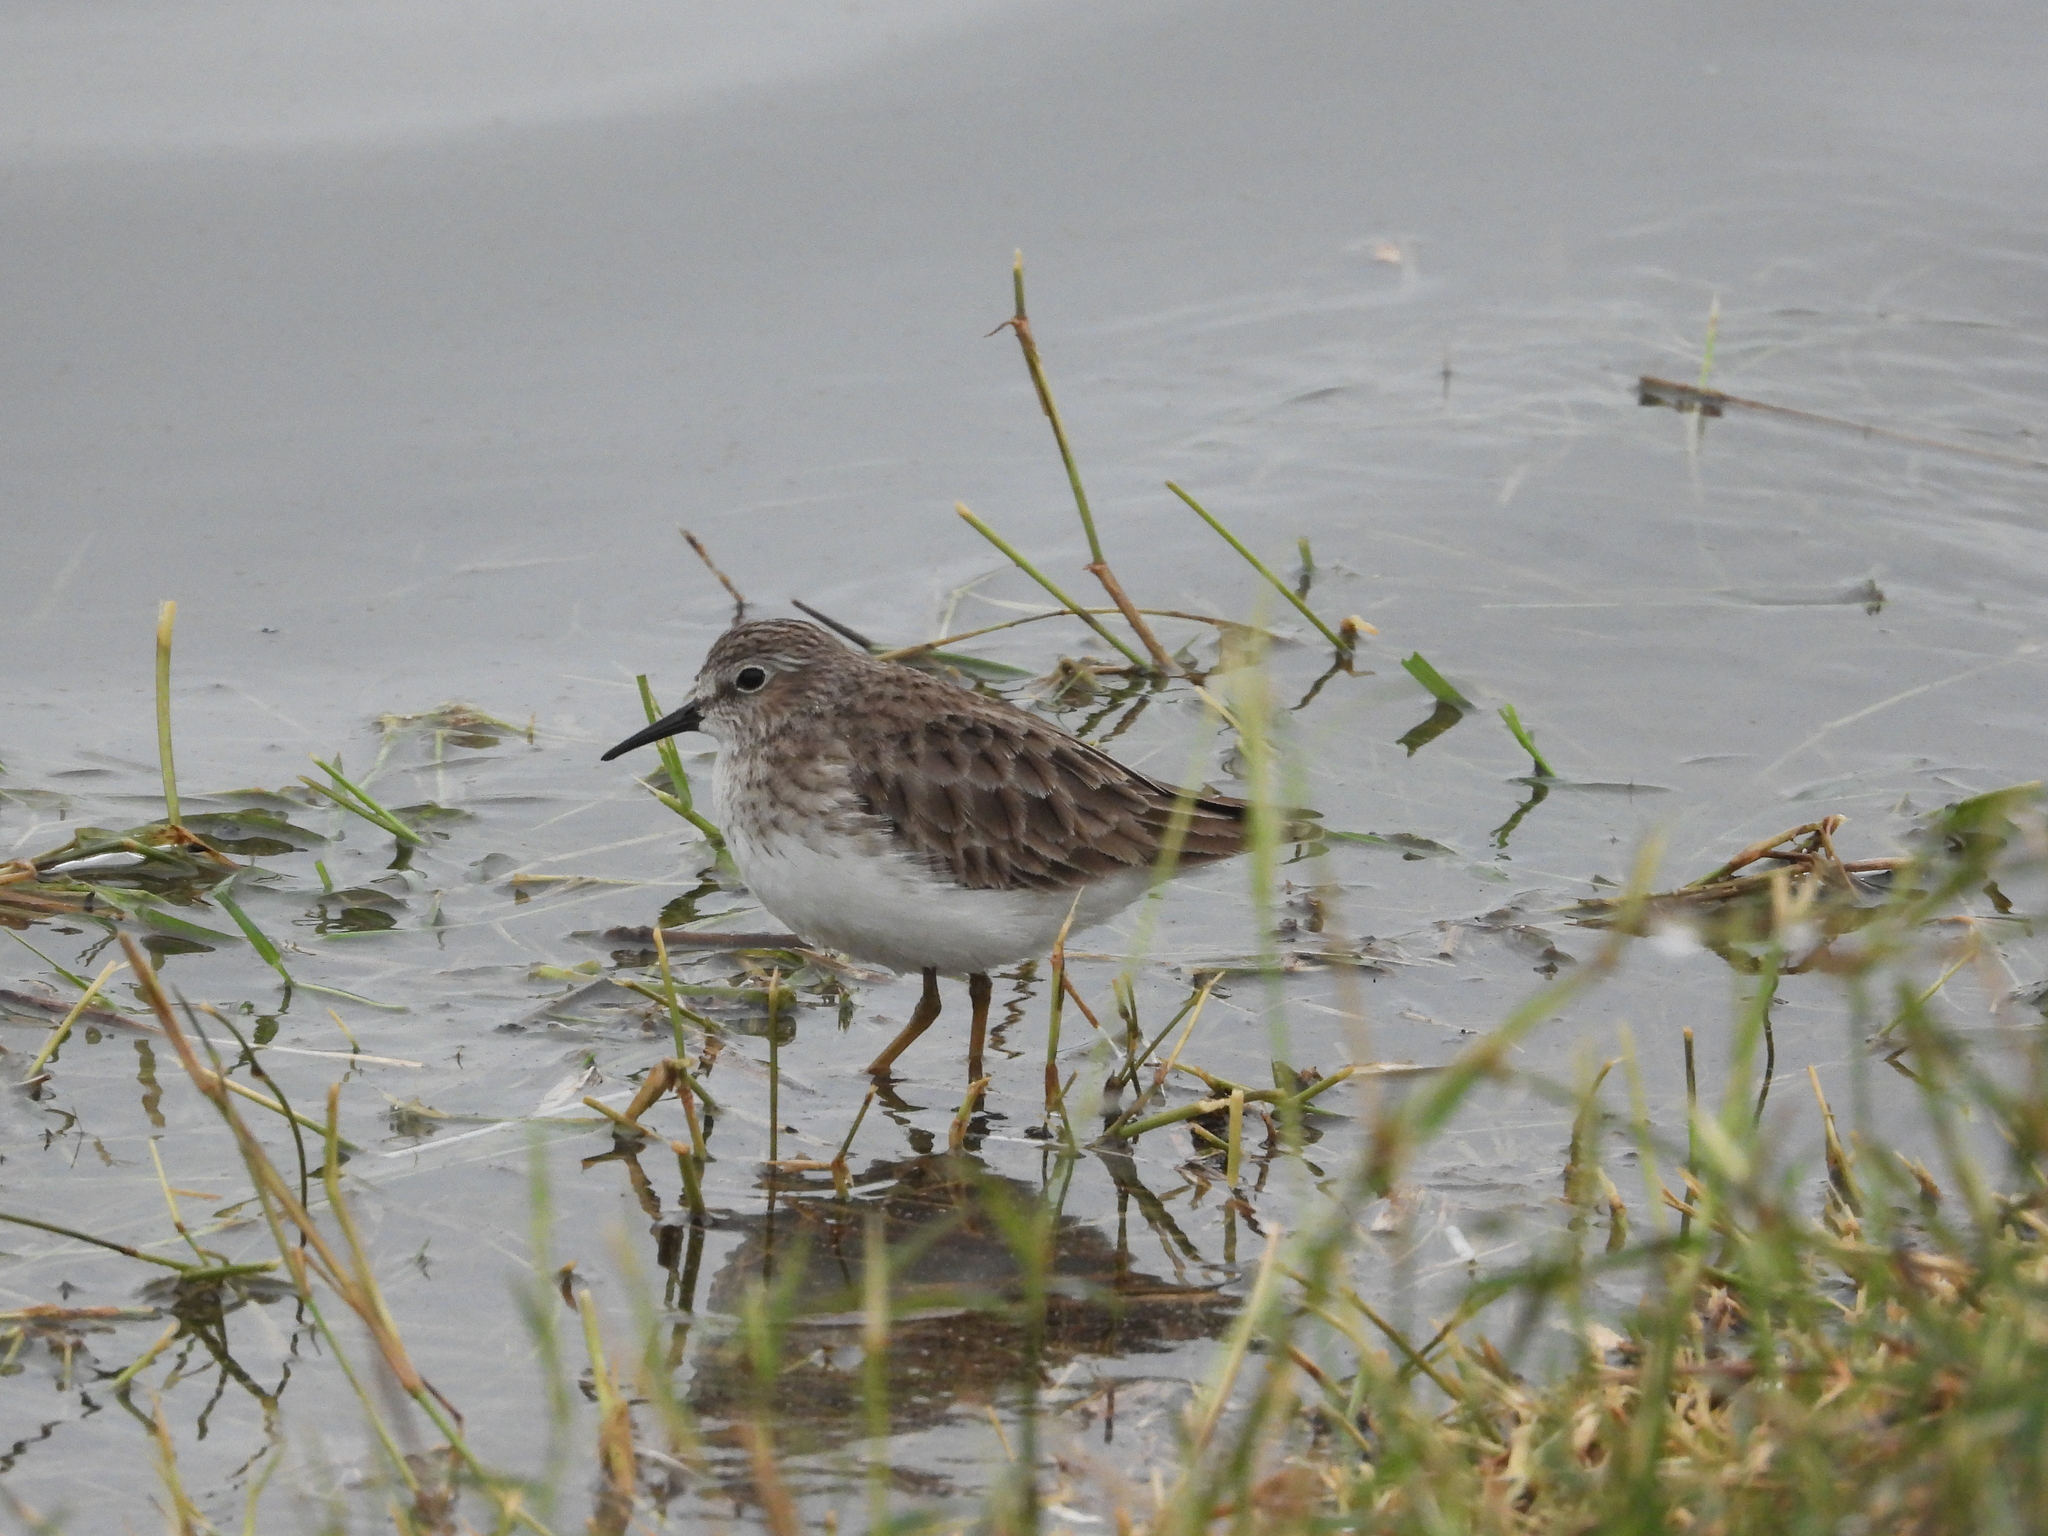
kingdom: Animalia
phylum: Chordata
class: Aves
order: Charadriiformes
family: Scolopacidae
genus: Calidris
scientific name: Calidris minutilla
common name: Least sandpiper
